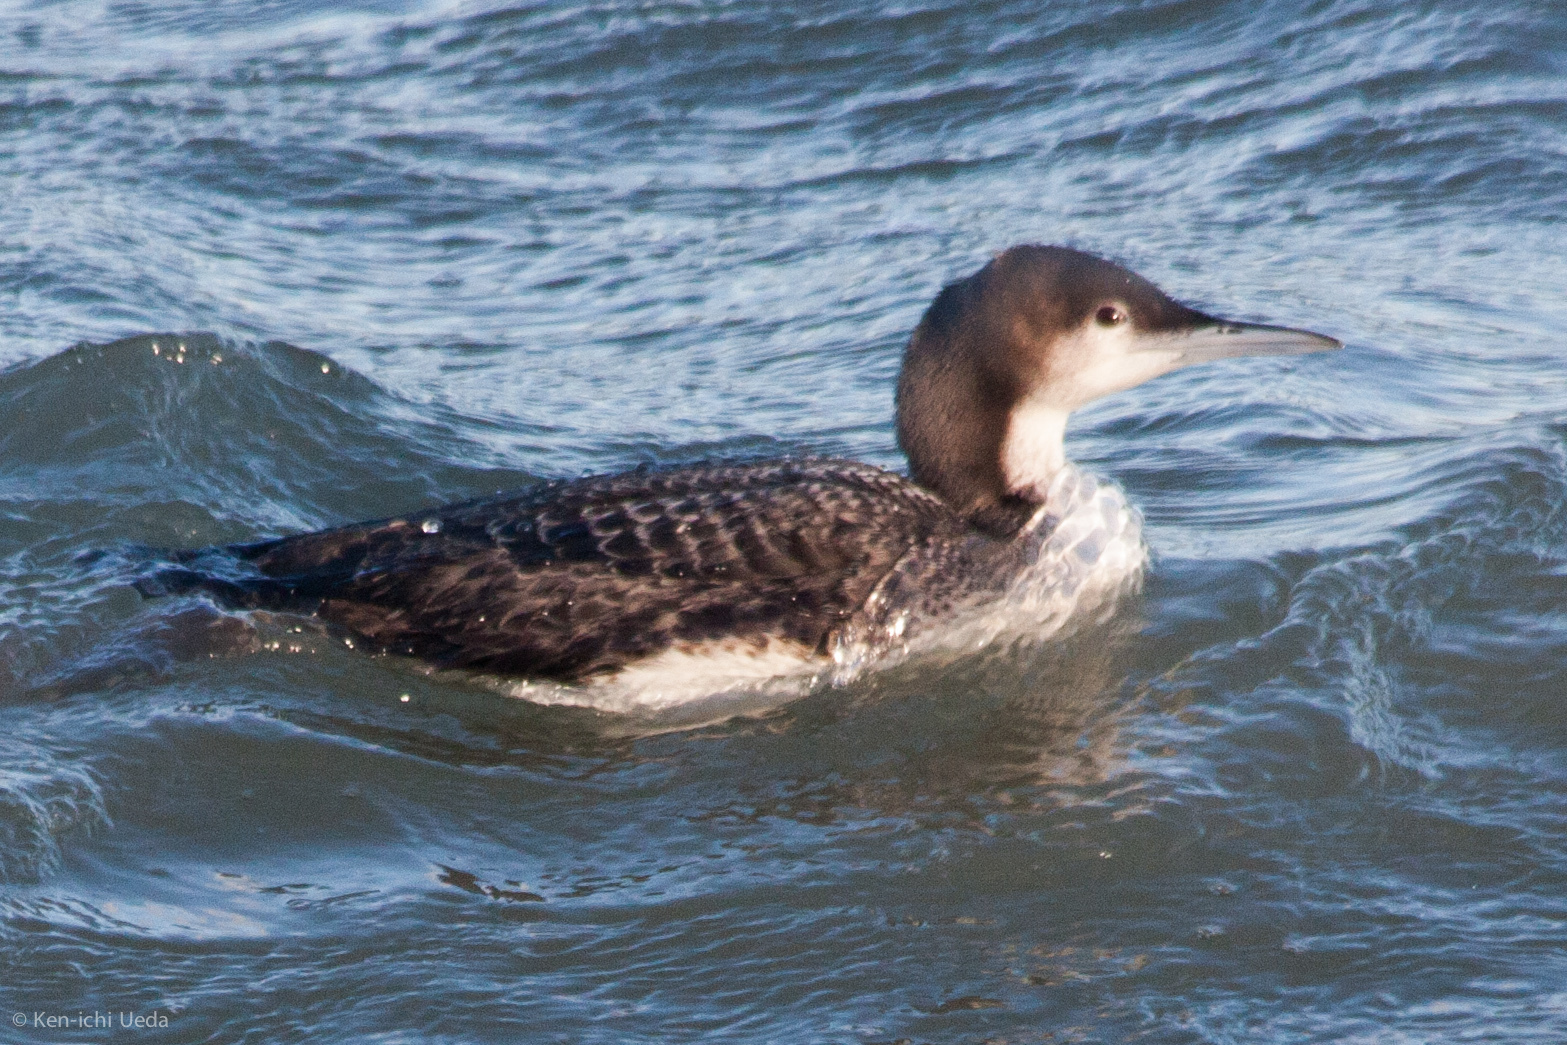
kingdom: Animalia
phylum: Chordata
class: Aves
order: Gaviiformes
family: Gaviidae
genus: Gavia
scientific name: Gavia pacifica
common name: Pacific loon
